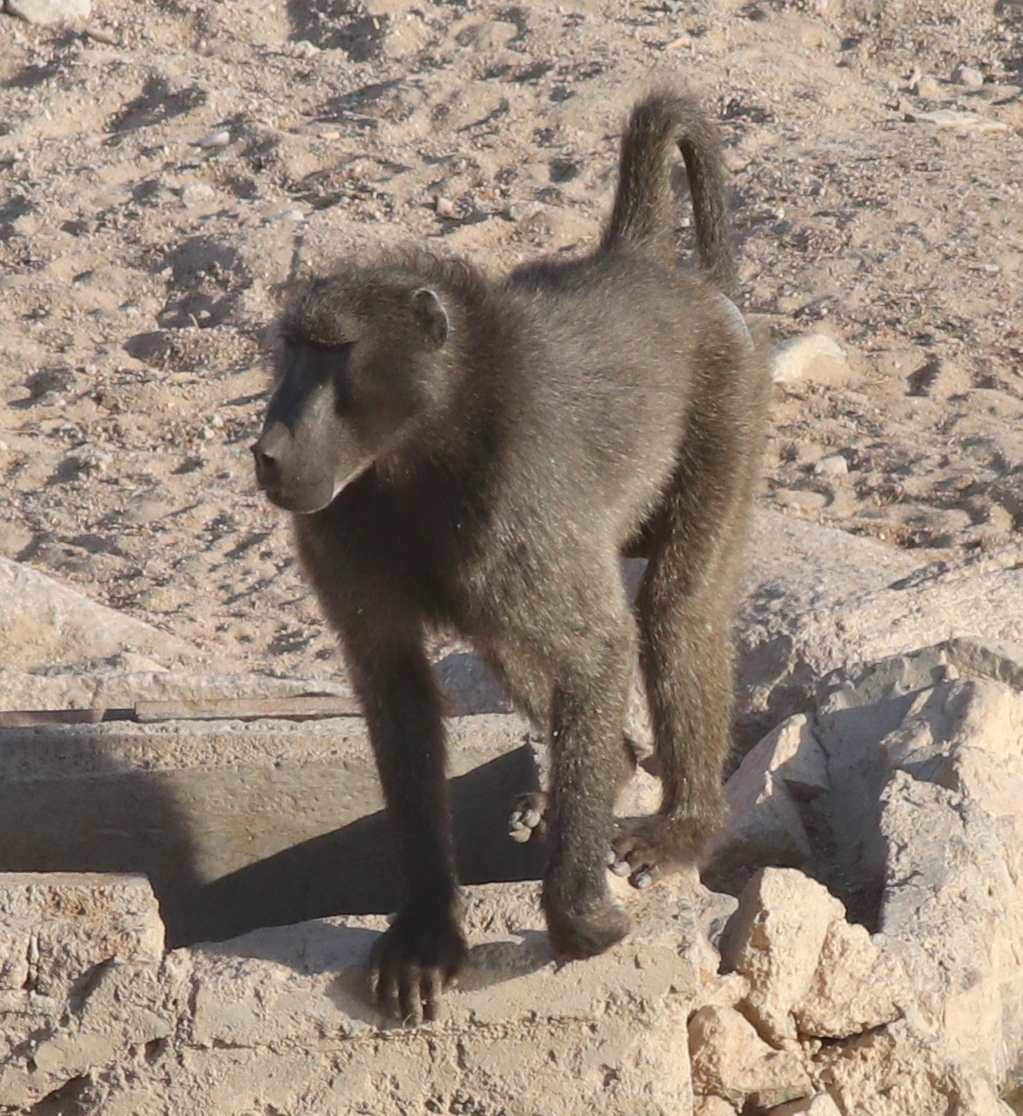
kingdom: Animalia
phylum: Chordata
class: Mammalia
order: Primates
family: Cercopithecidae
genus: Papio
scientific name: Papio ursinus
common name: Chacma baboon
